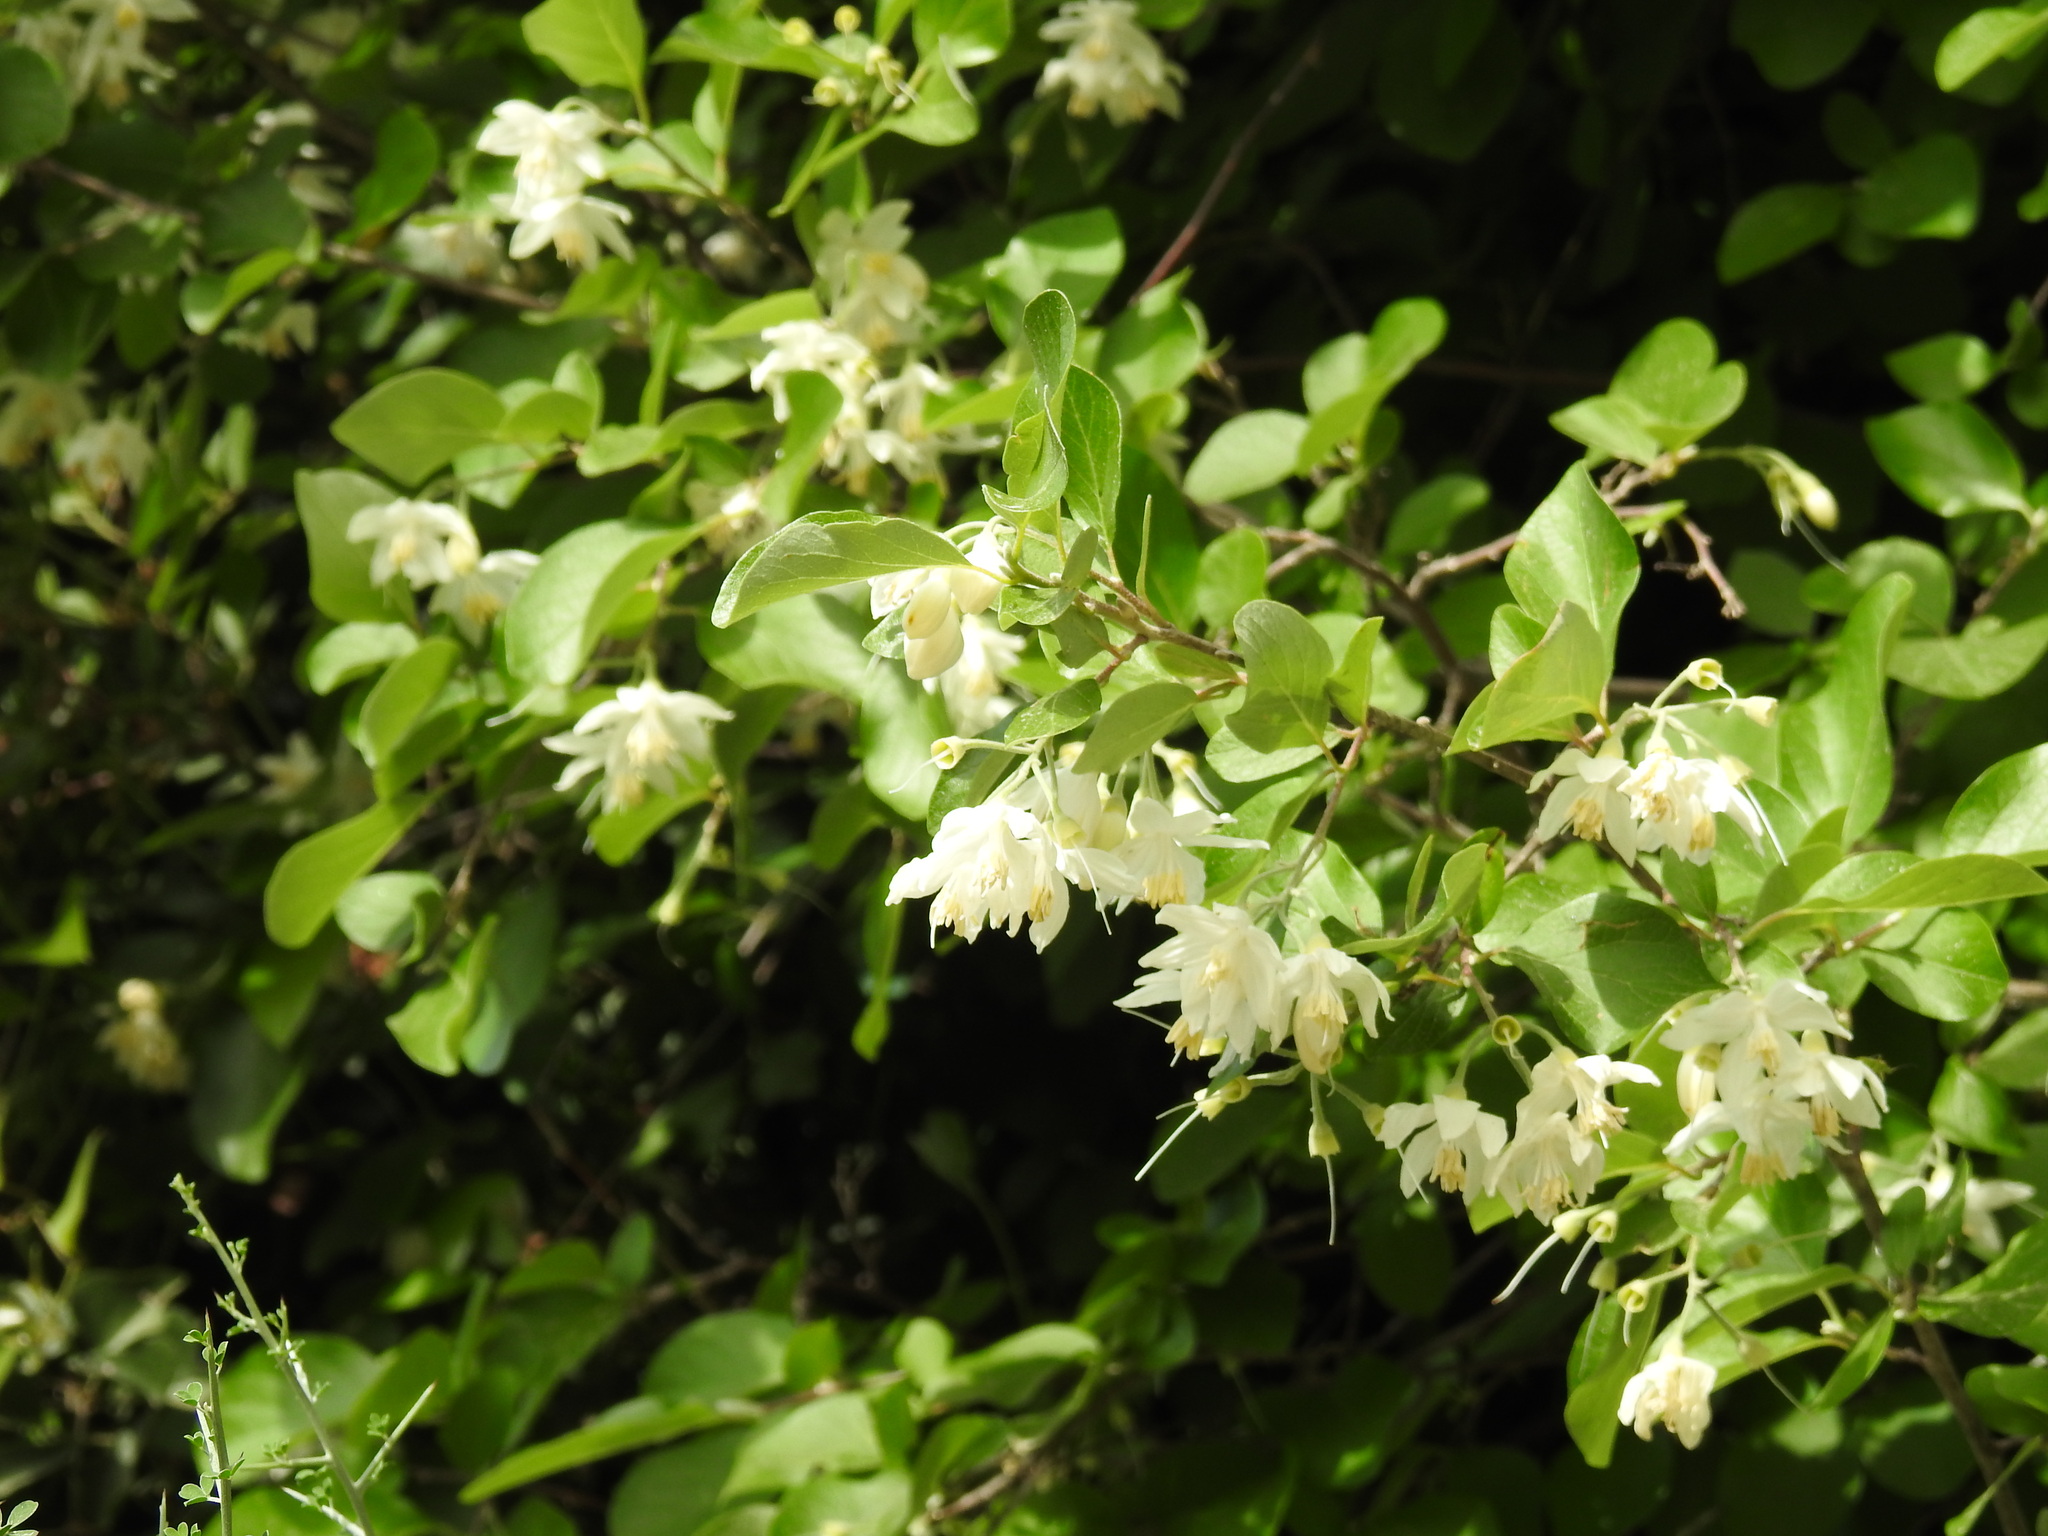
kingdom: Plantae
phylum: Tracheophyta
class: Magnoliopsida
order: Ericales
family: Styracaceae
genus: Styrax
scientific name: Styrax officinalis
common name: Storax
